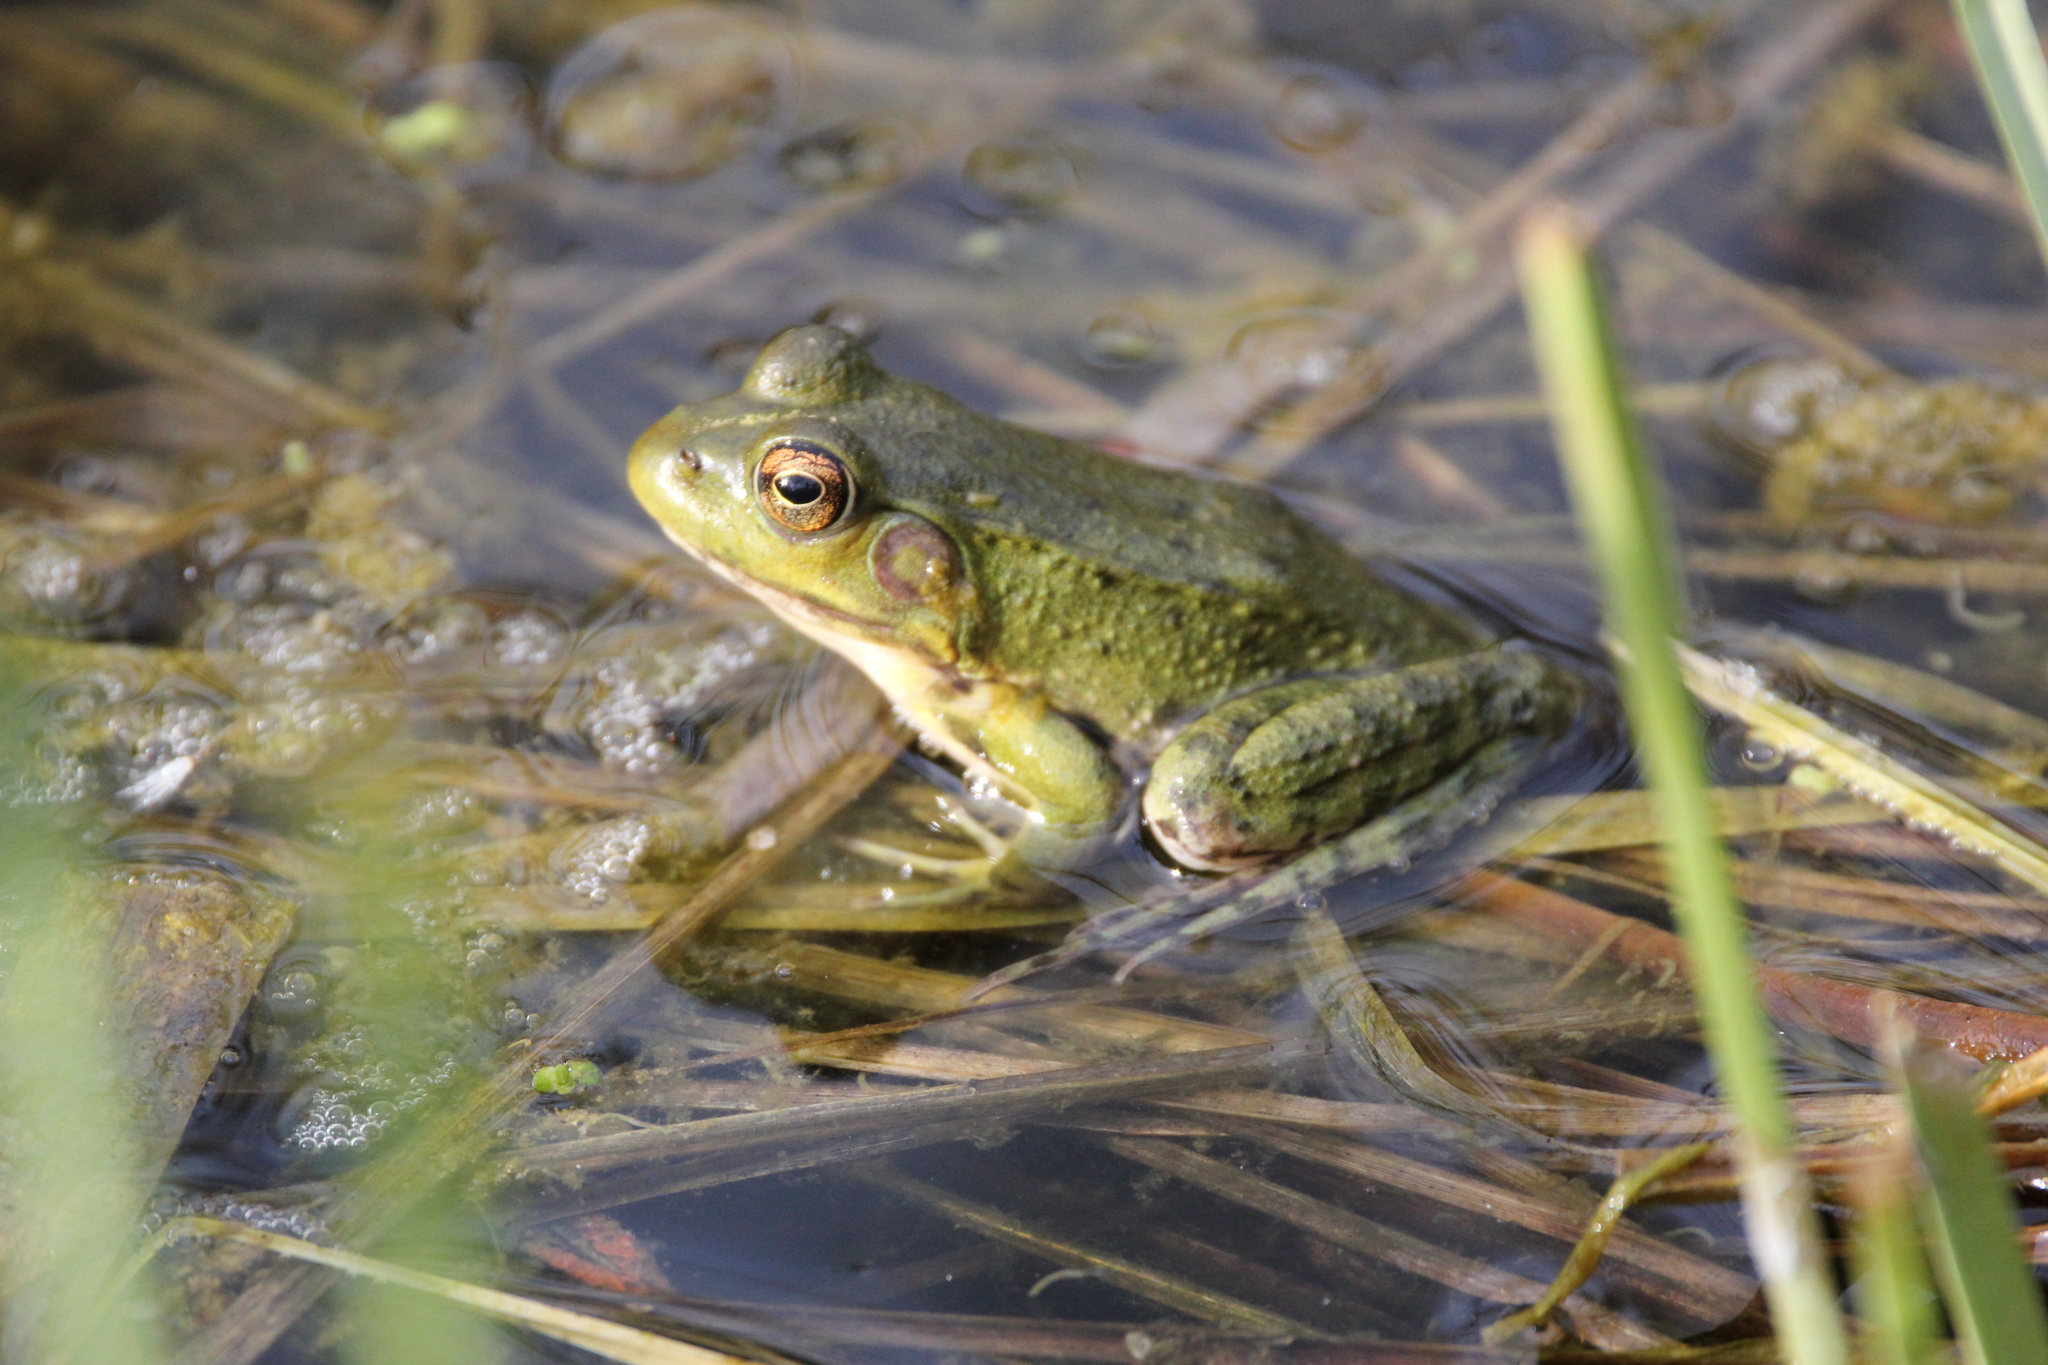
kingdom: Animalia
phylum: Chordata
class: Amphibia
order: Anura
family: Ranidae
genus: Lithobates
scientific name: Lithobates clamitans
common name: Green frog
